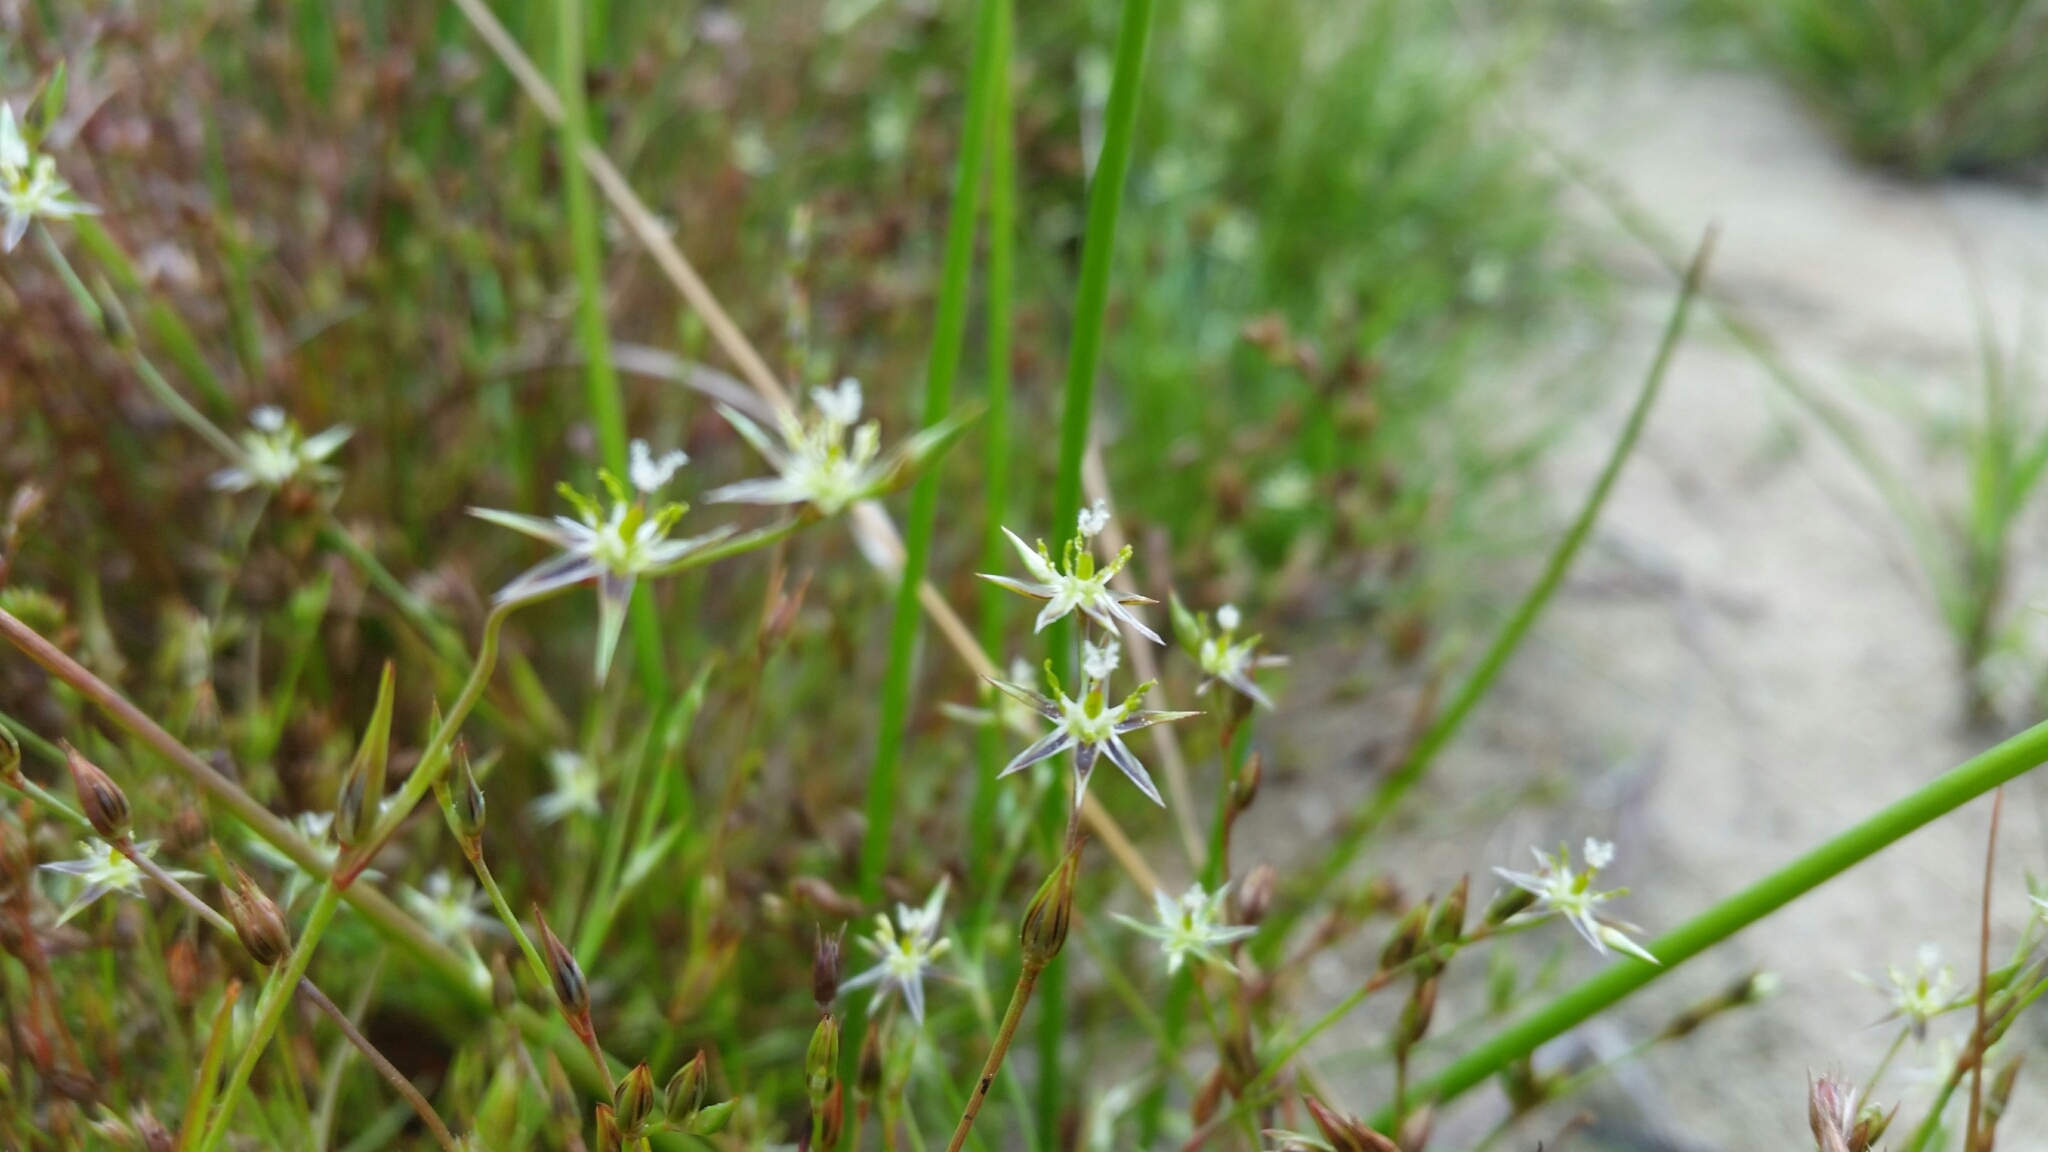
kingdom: Plantae
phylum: Tracheophyta
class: Liliopsida
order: Poales
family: Juncaceae
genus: Juncus
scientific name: Juncus bufonius
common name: Toad rush
